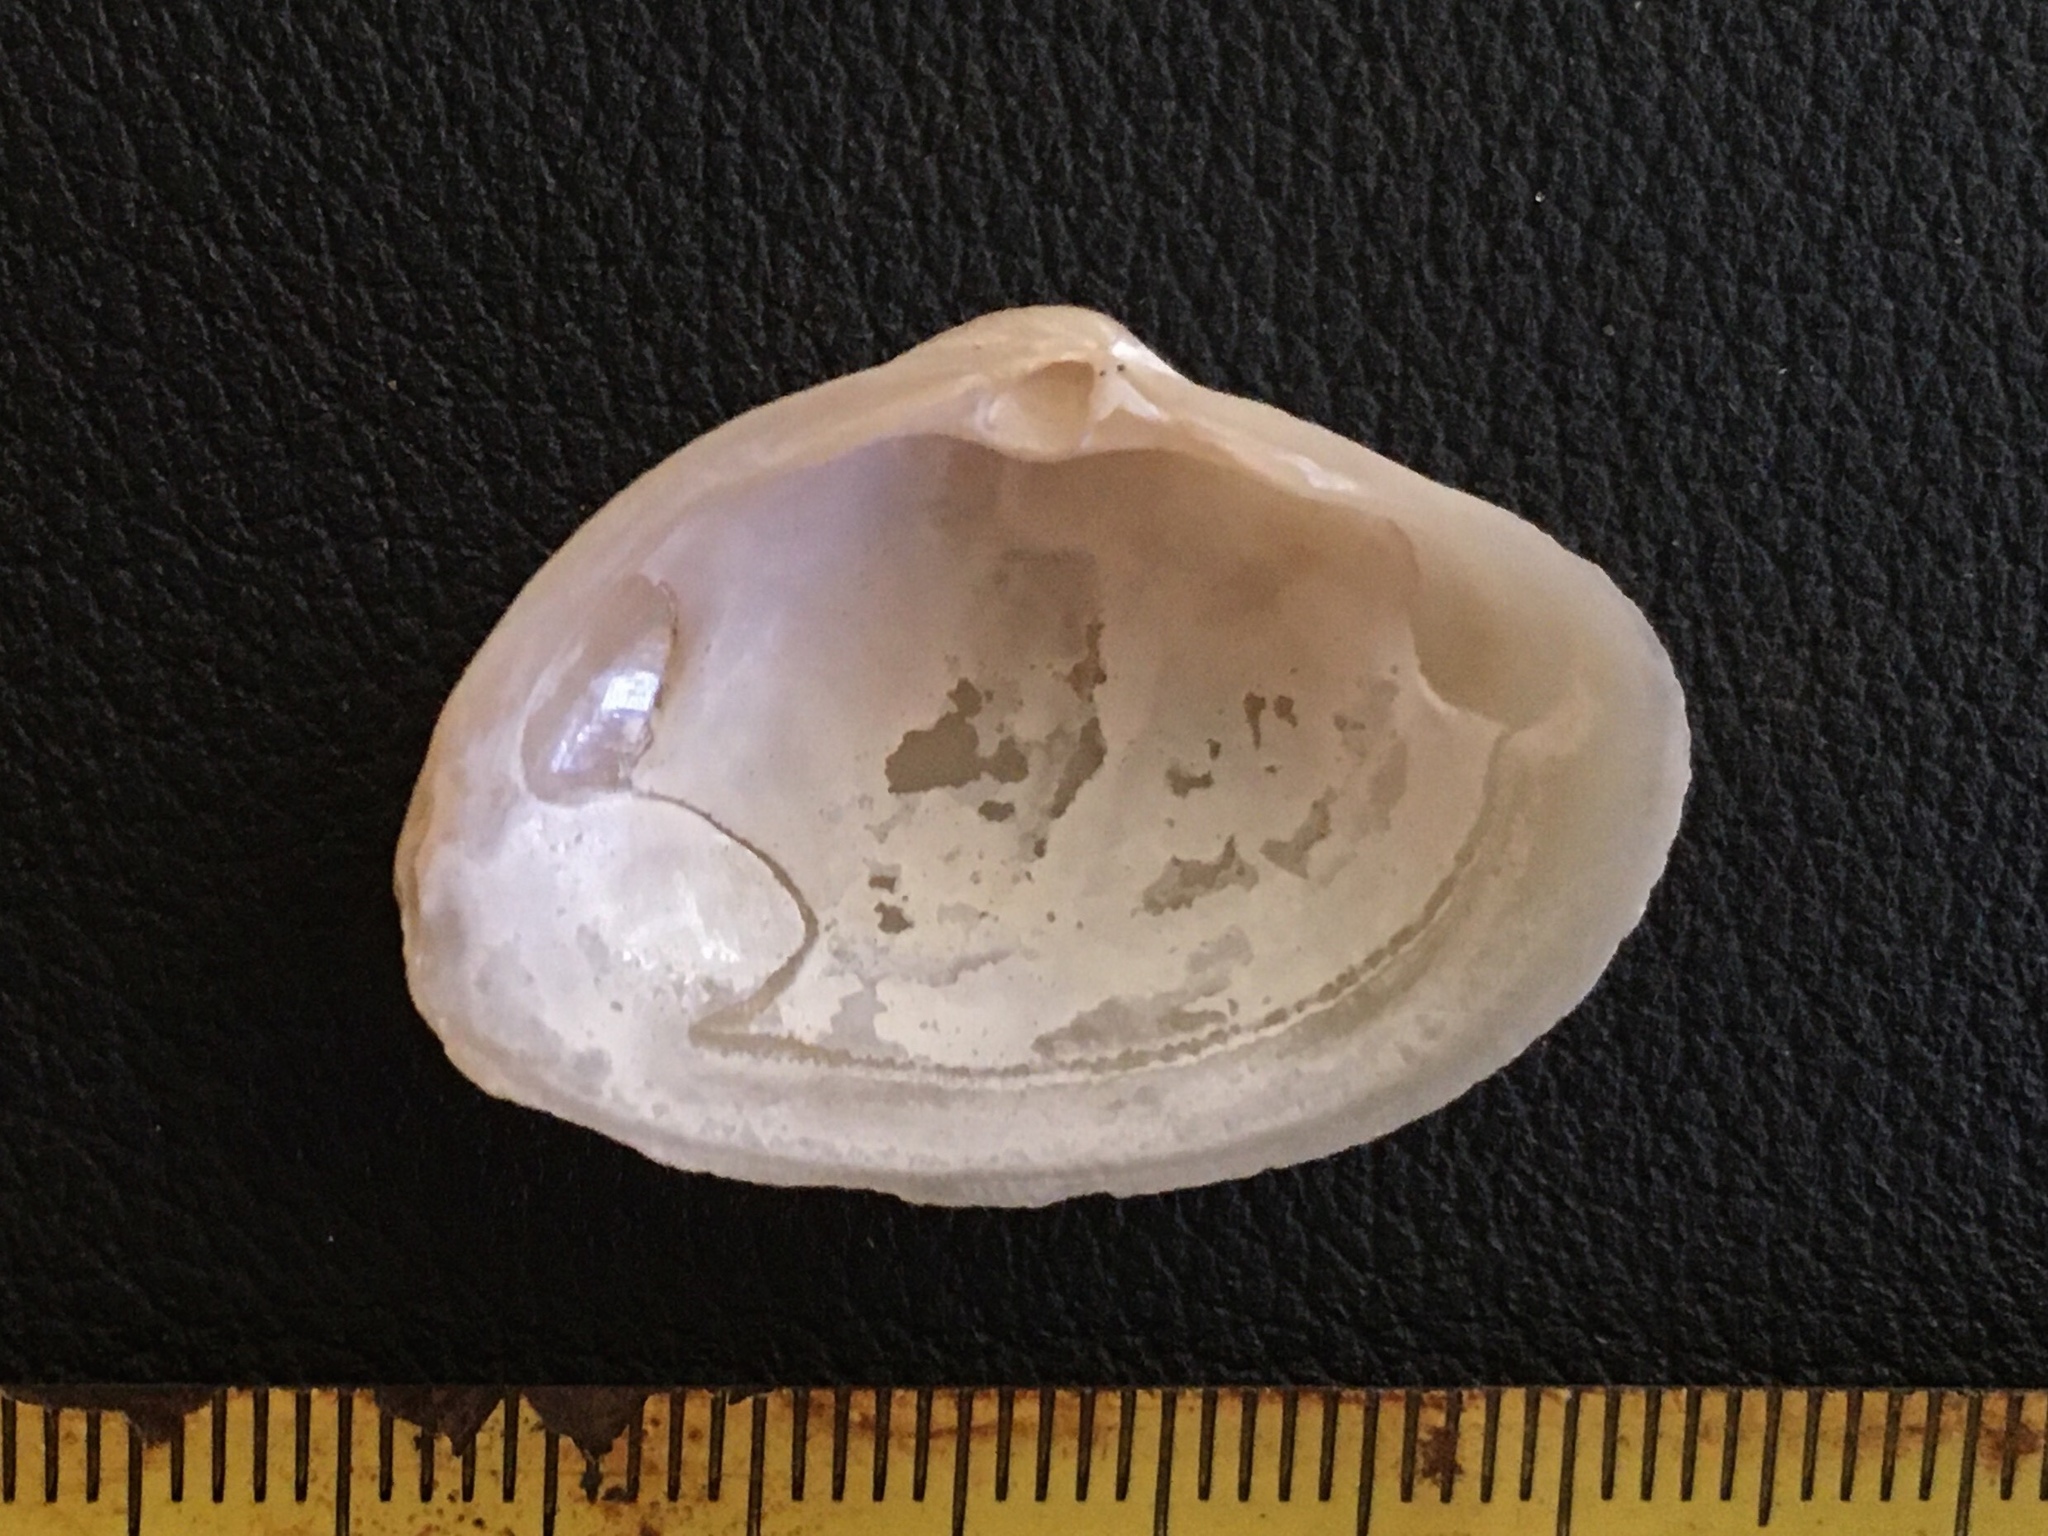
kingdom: Animalia
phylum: Mollusca
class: Bivalvia
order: Venerida
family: Mactridae
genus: Mactra
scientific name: Mactra guidoi
